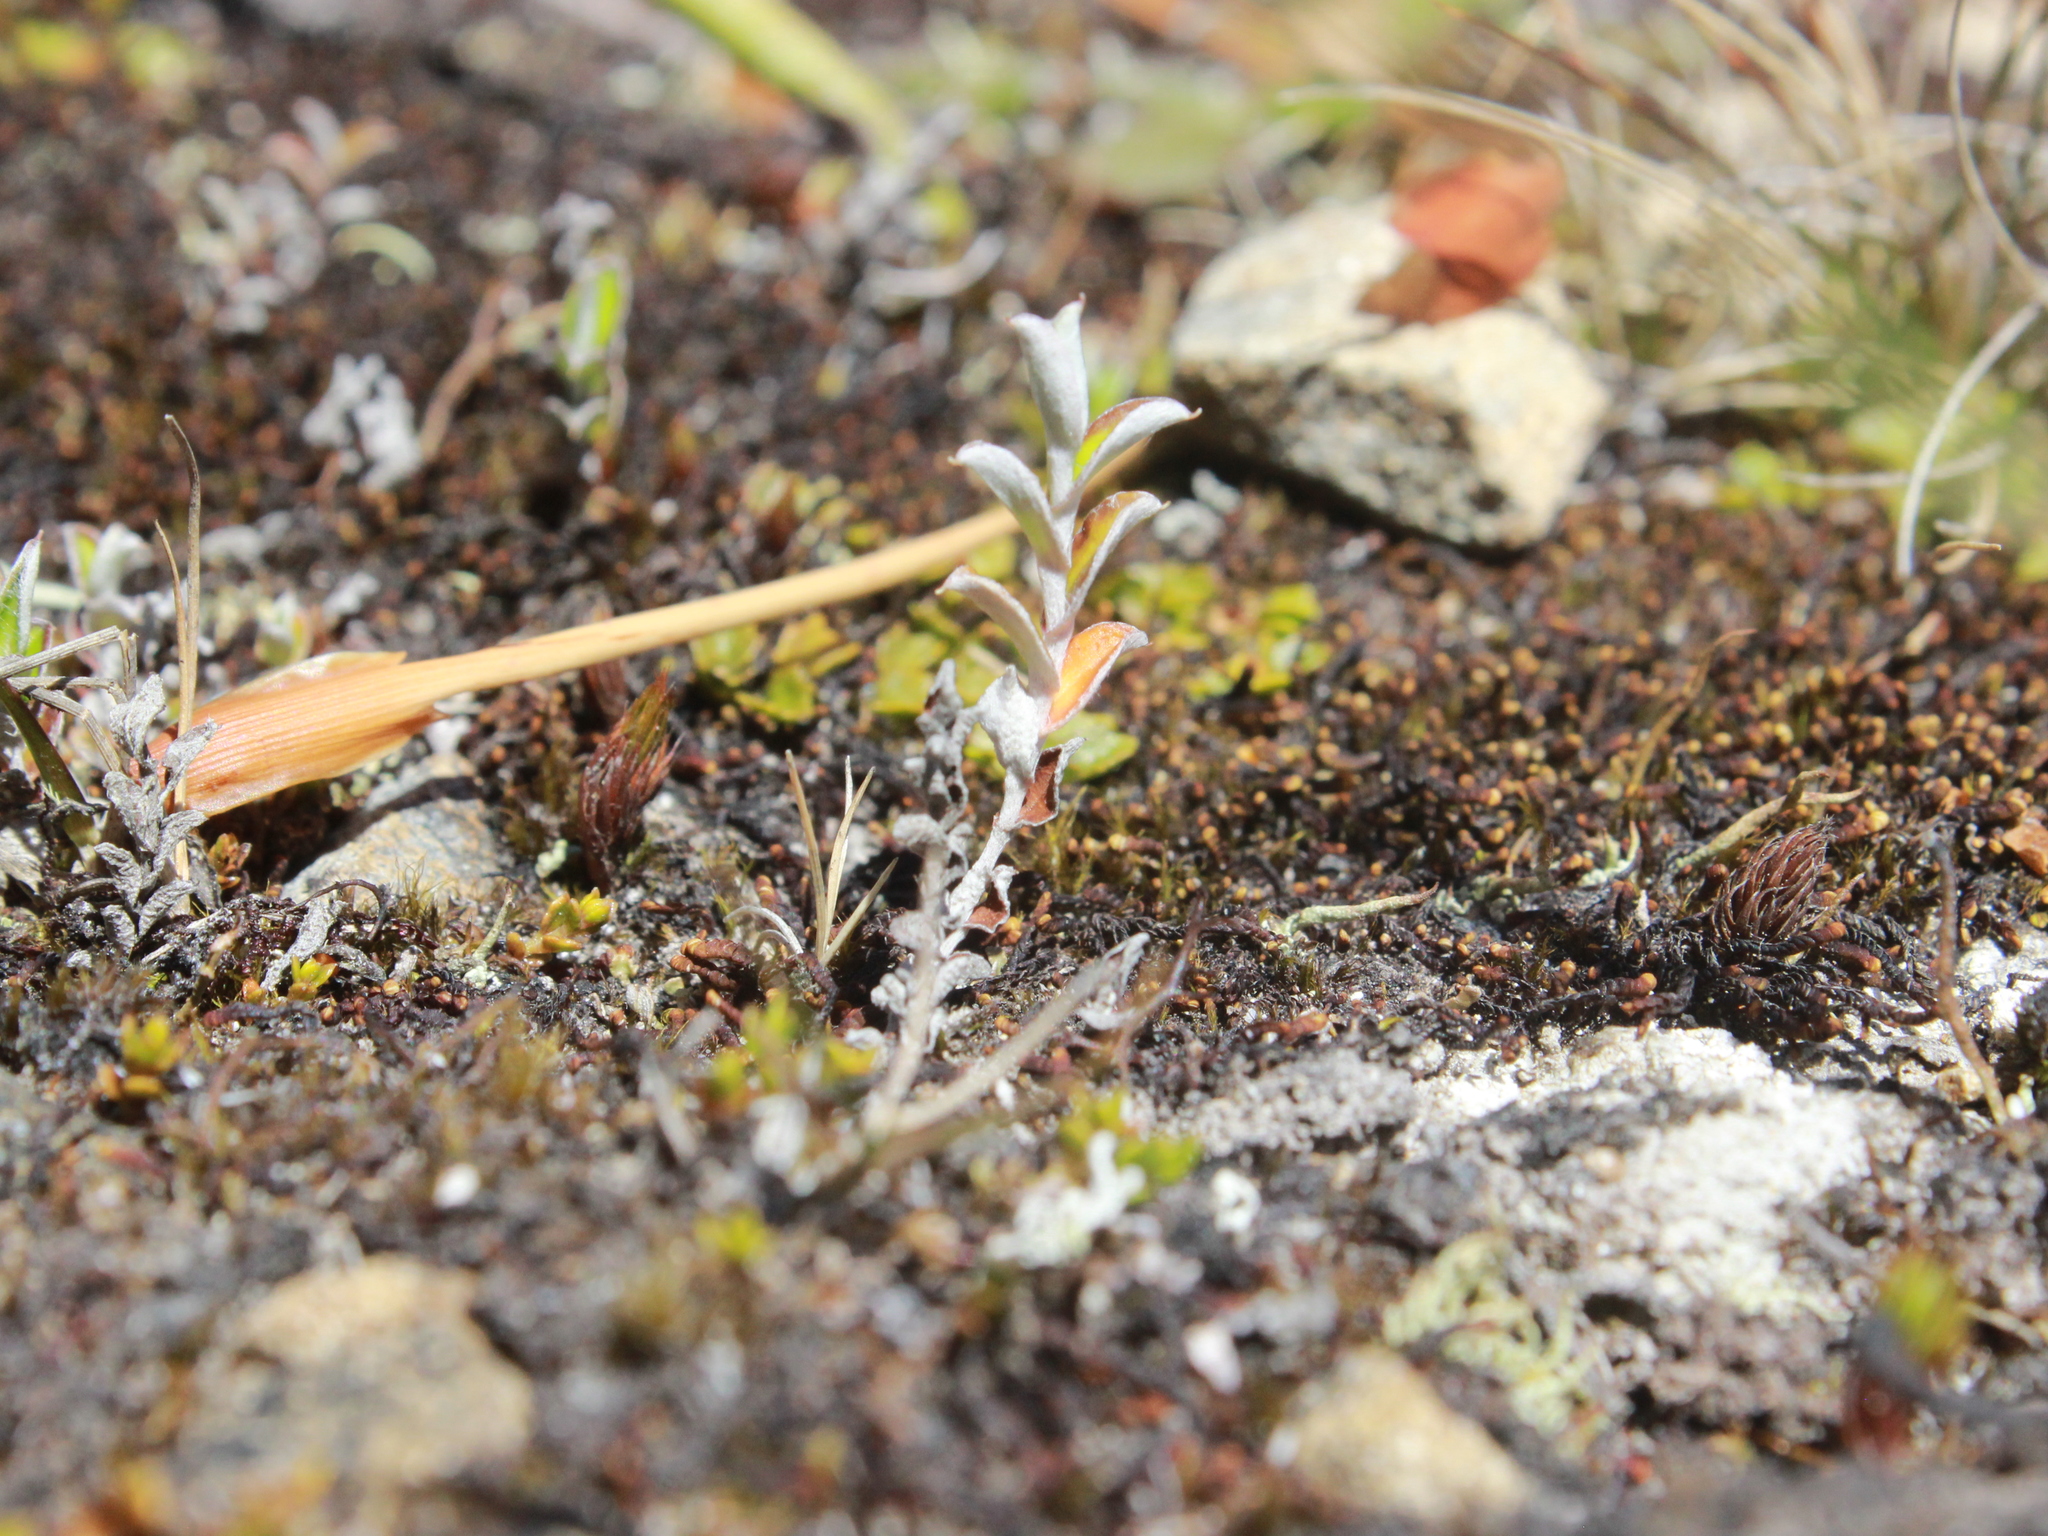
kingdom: Plantae
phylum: Tracheophyta
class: Magnoliopsida
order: Asterales
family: Asteraceae
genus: Helichrysum
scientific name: Helichrysum filicaule
